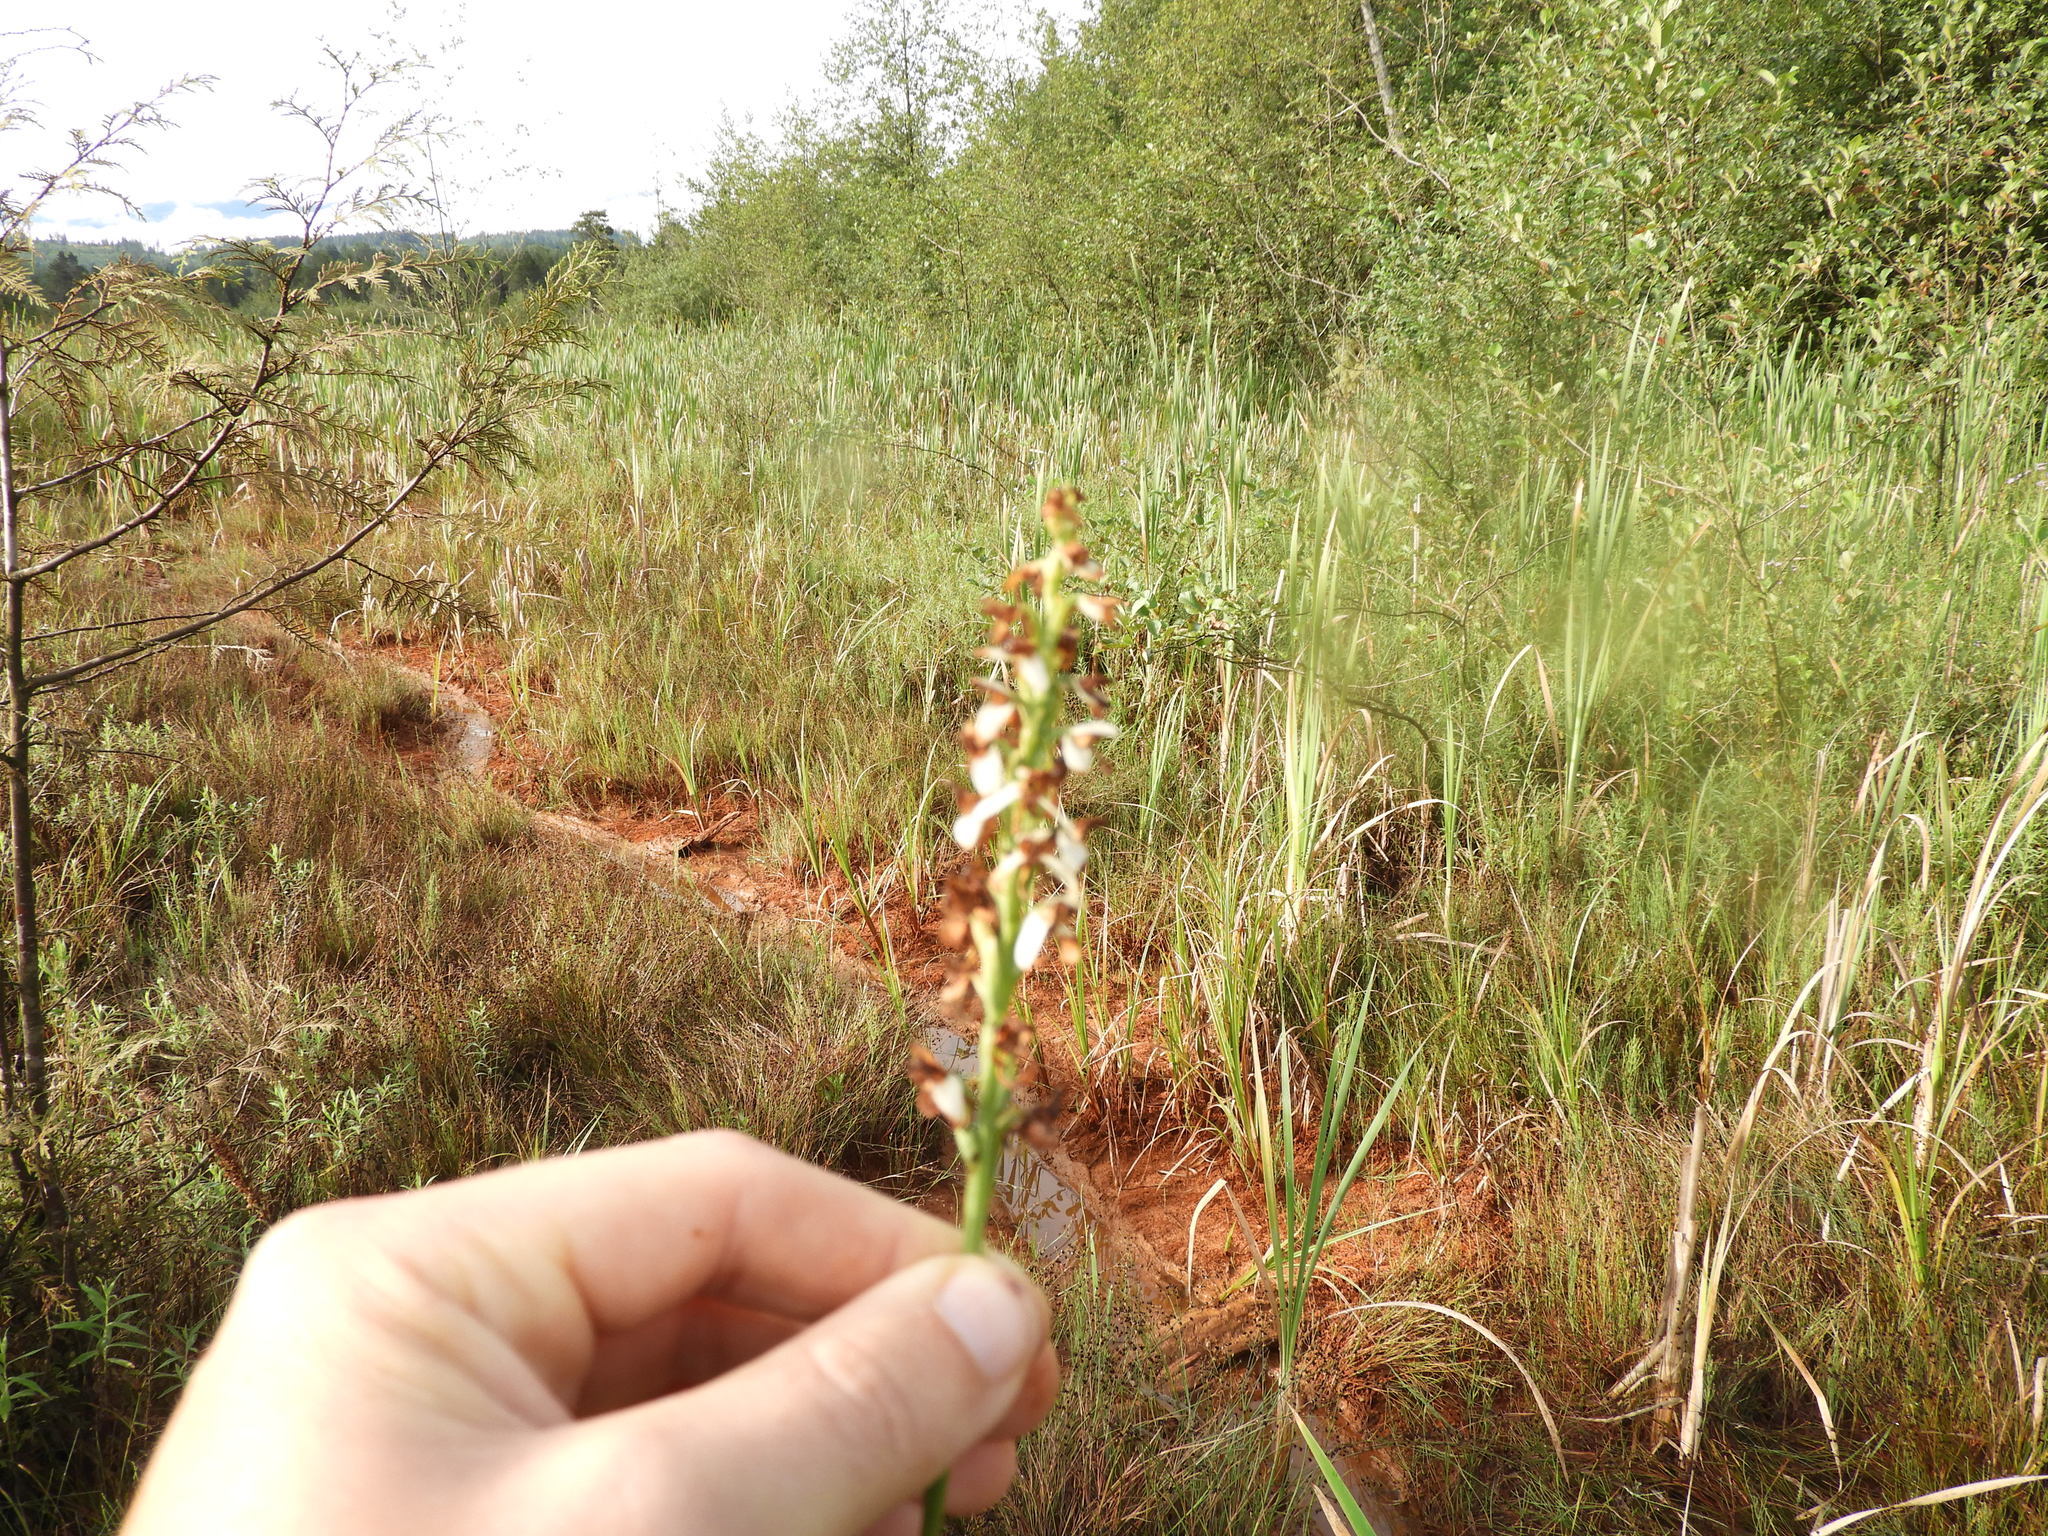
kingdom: Plantae
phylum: Tracheophyta
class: Liliopsida
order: Asparagales
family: Orchidaceae
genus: Platanthera
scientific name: Platanthera dilatata
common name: Bog candles
